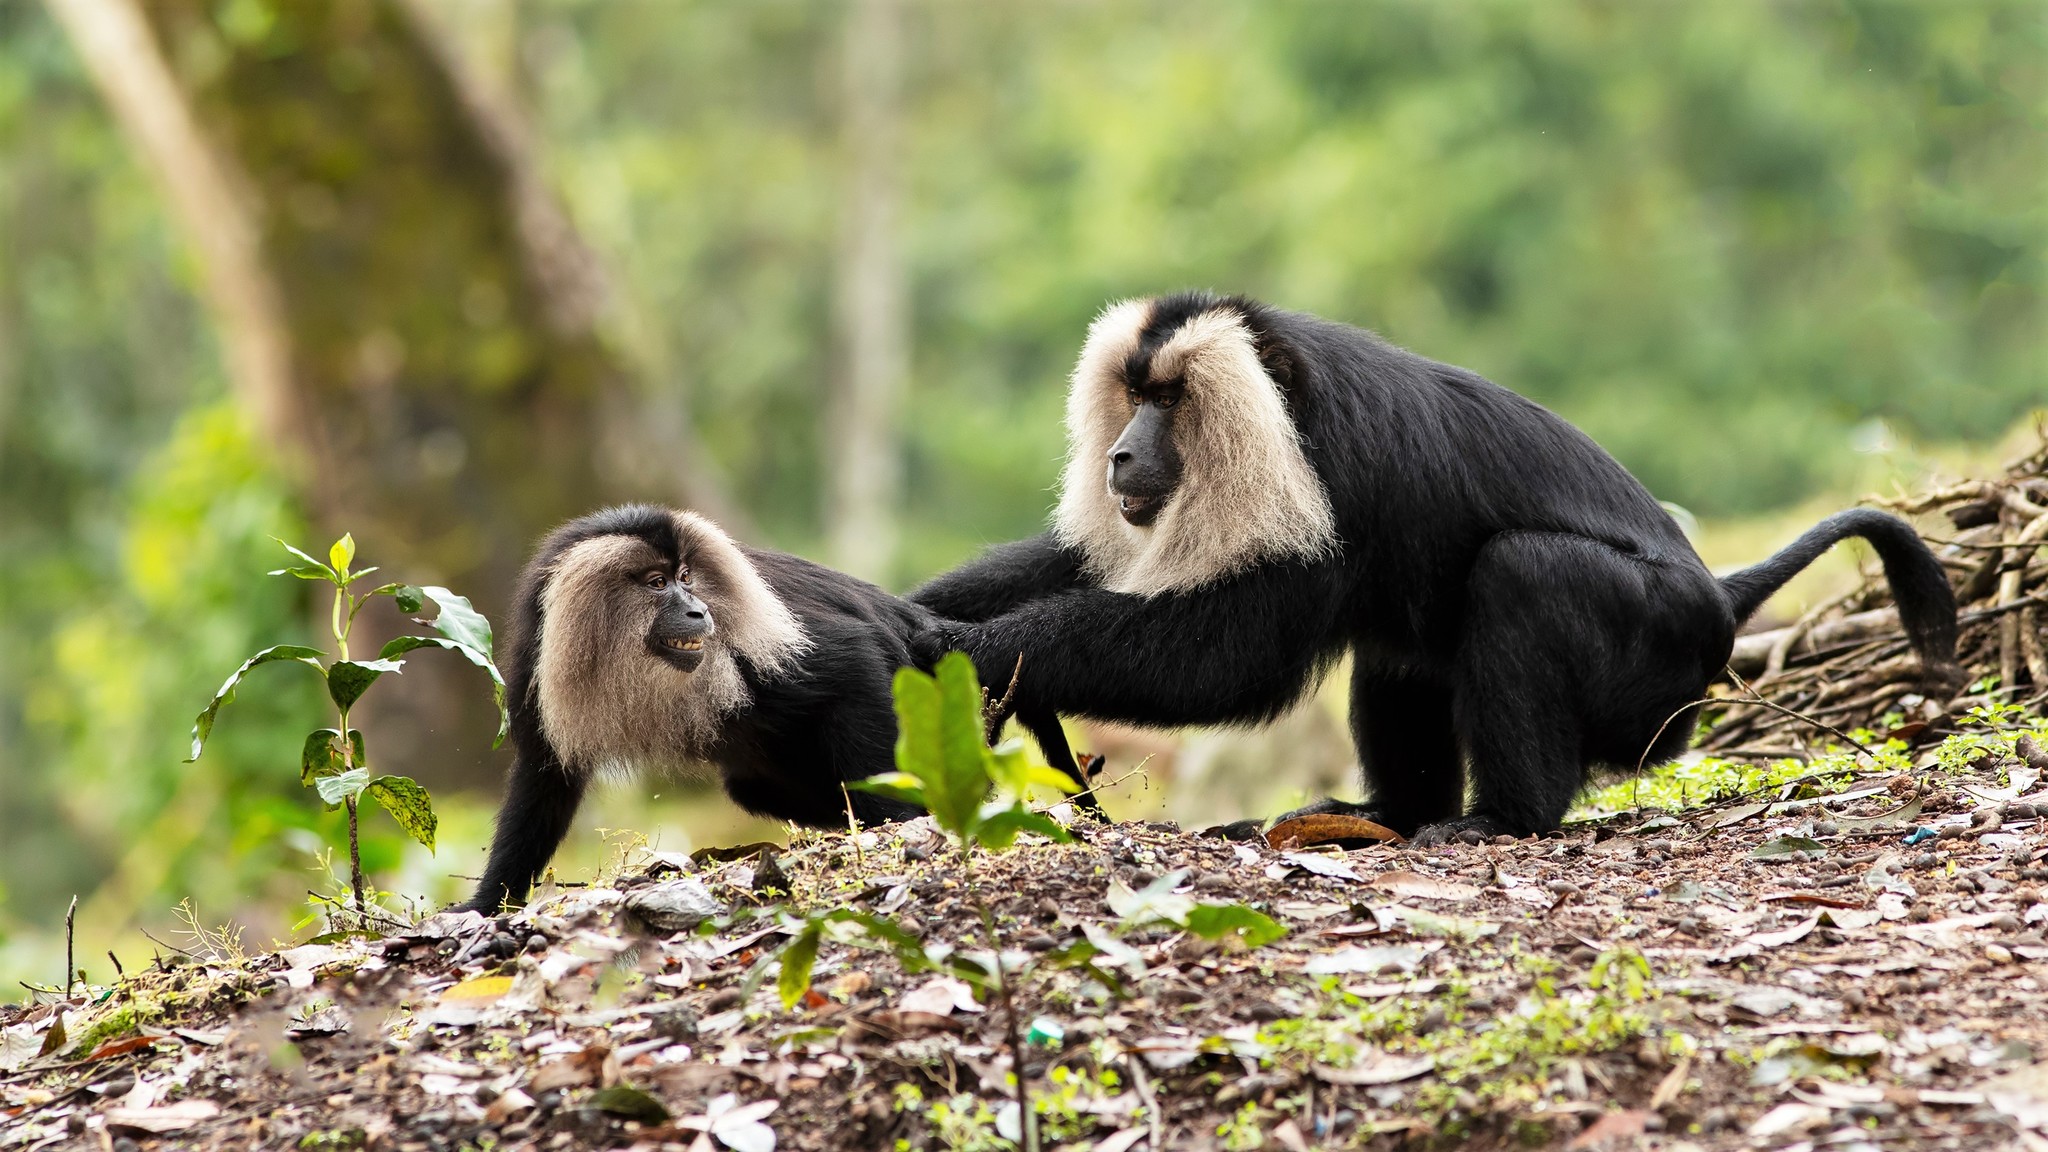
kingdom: Animalia
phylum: Chordata
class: Mammalia
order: Primates
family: Cercopithecidae
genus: Macaca
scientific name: Macaca silenus
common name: Lion-tailed macaque
